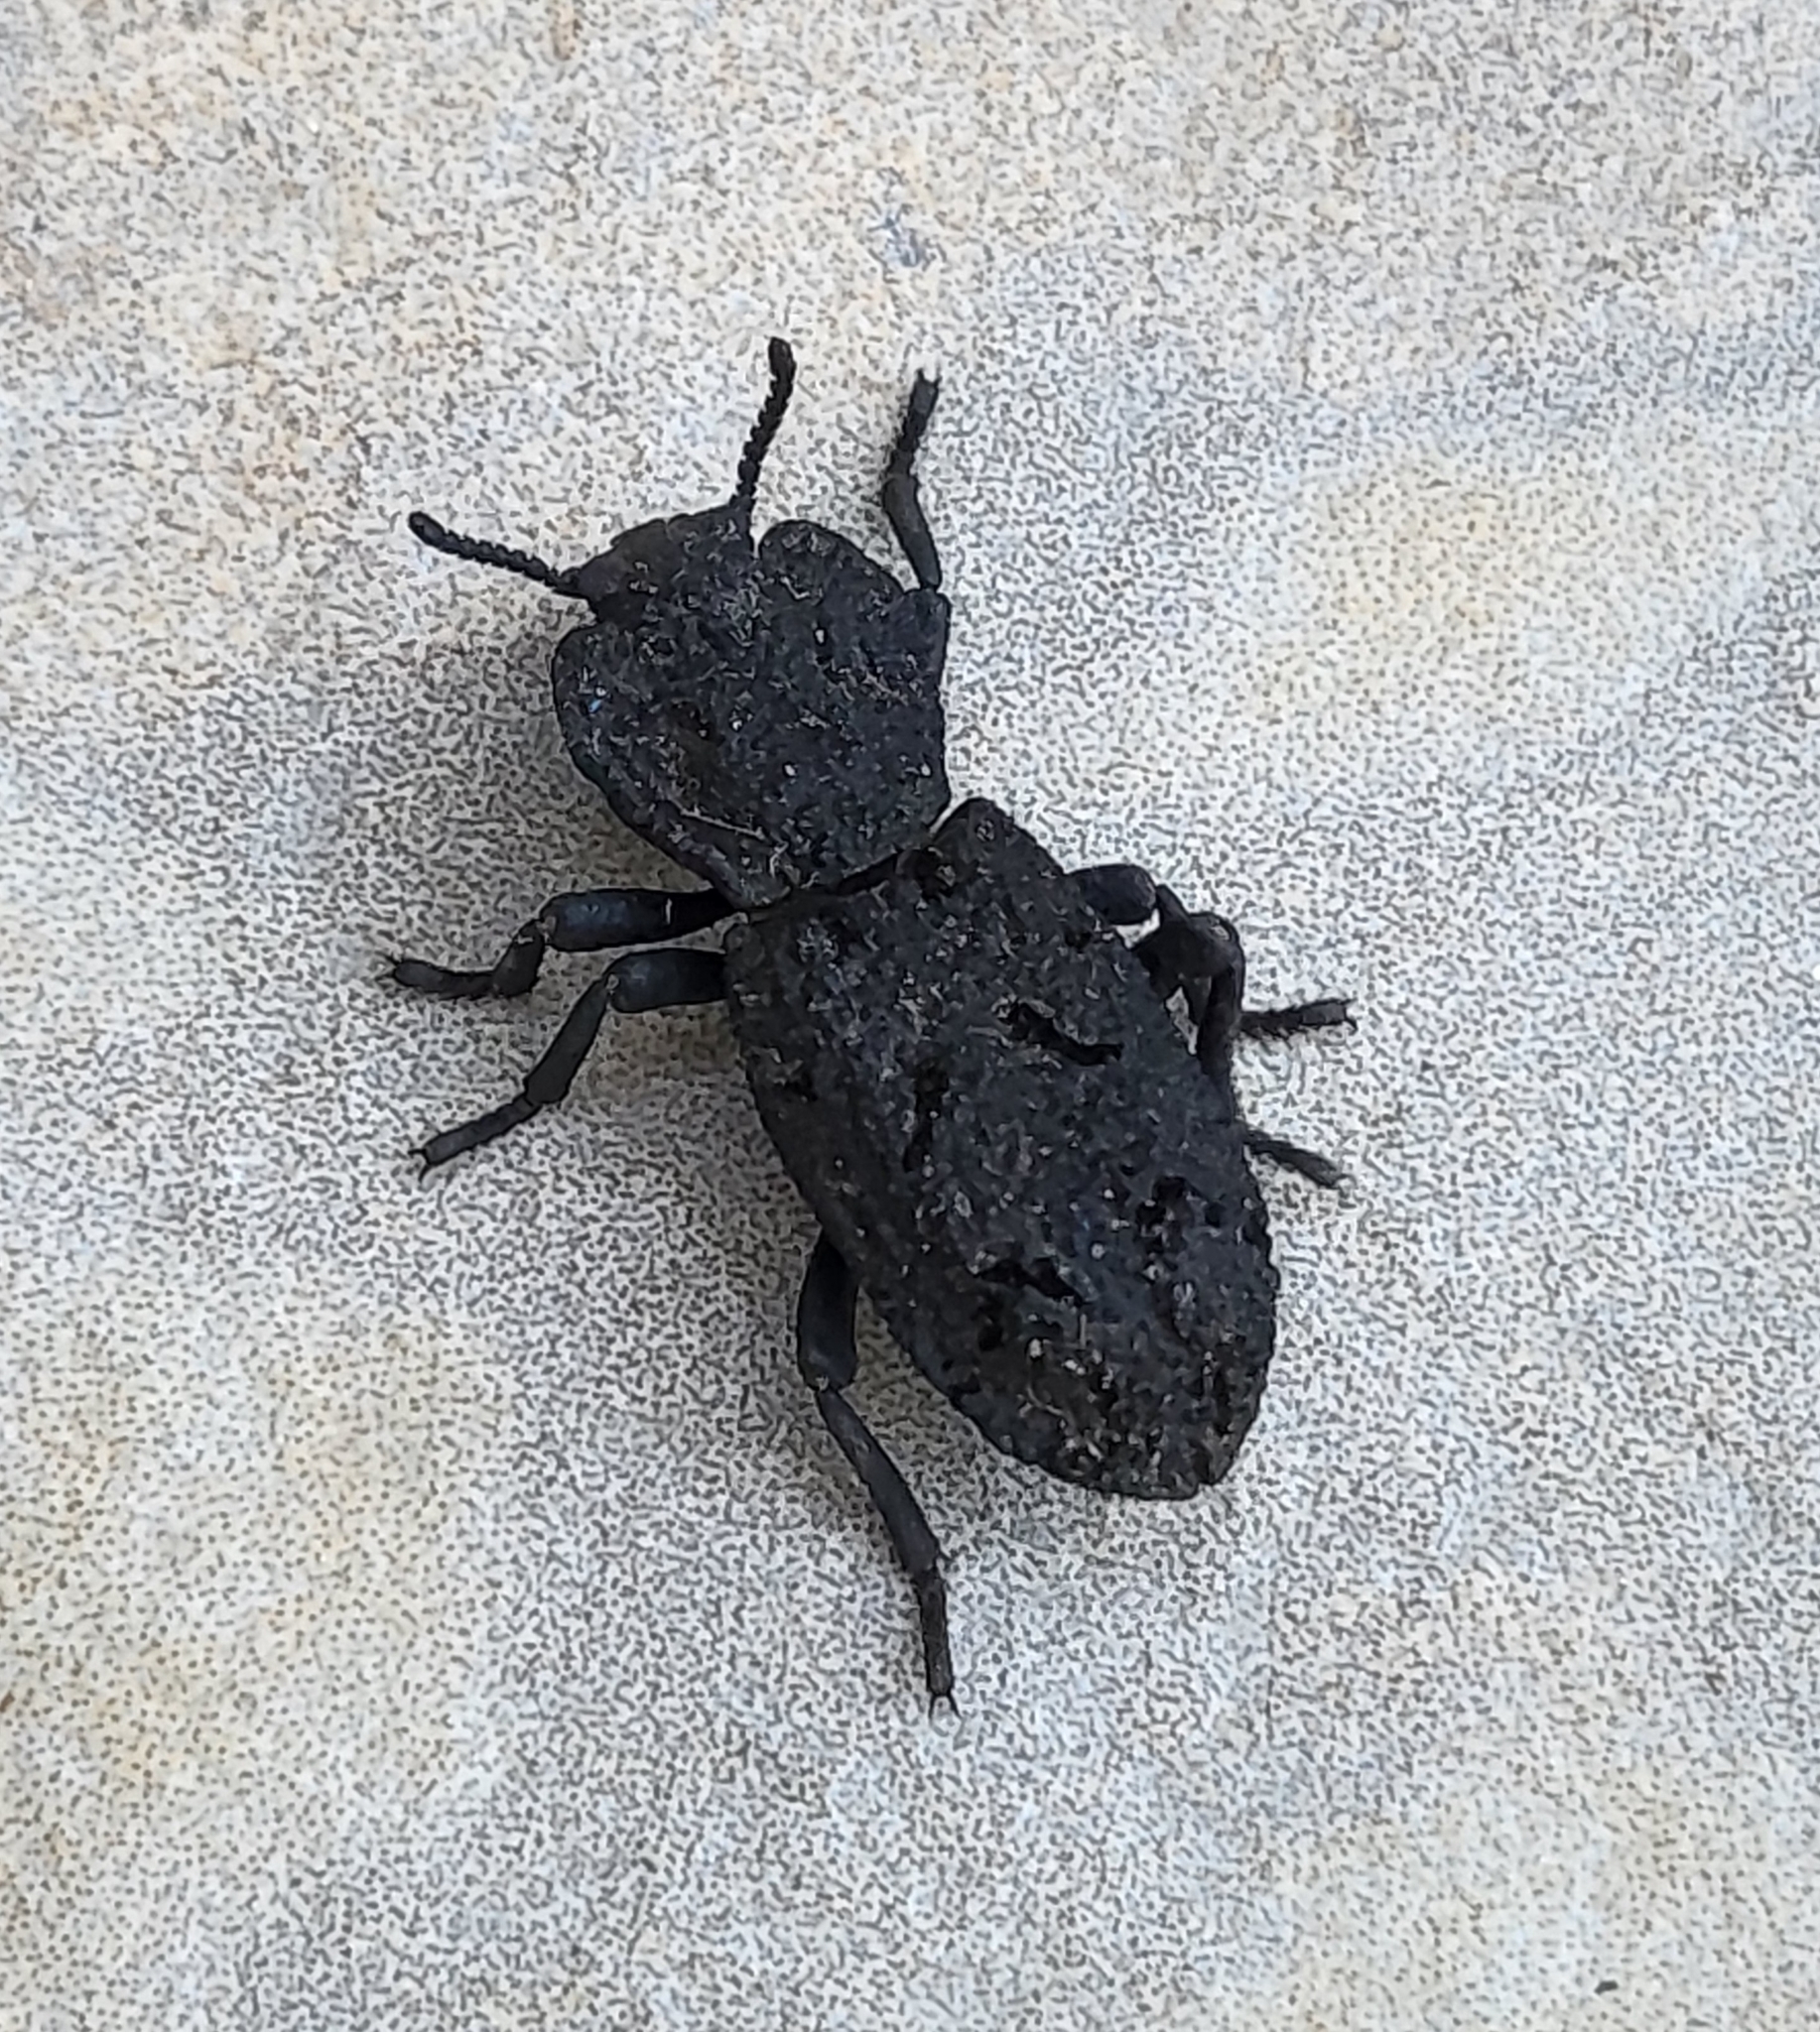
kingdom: Animalia
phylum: Arthropoda
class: Insecta
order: Coleoptera
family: Zopheridae
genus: Phloeodes
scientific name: Phloeodes diabolicus
